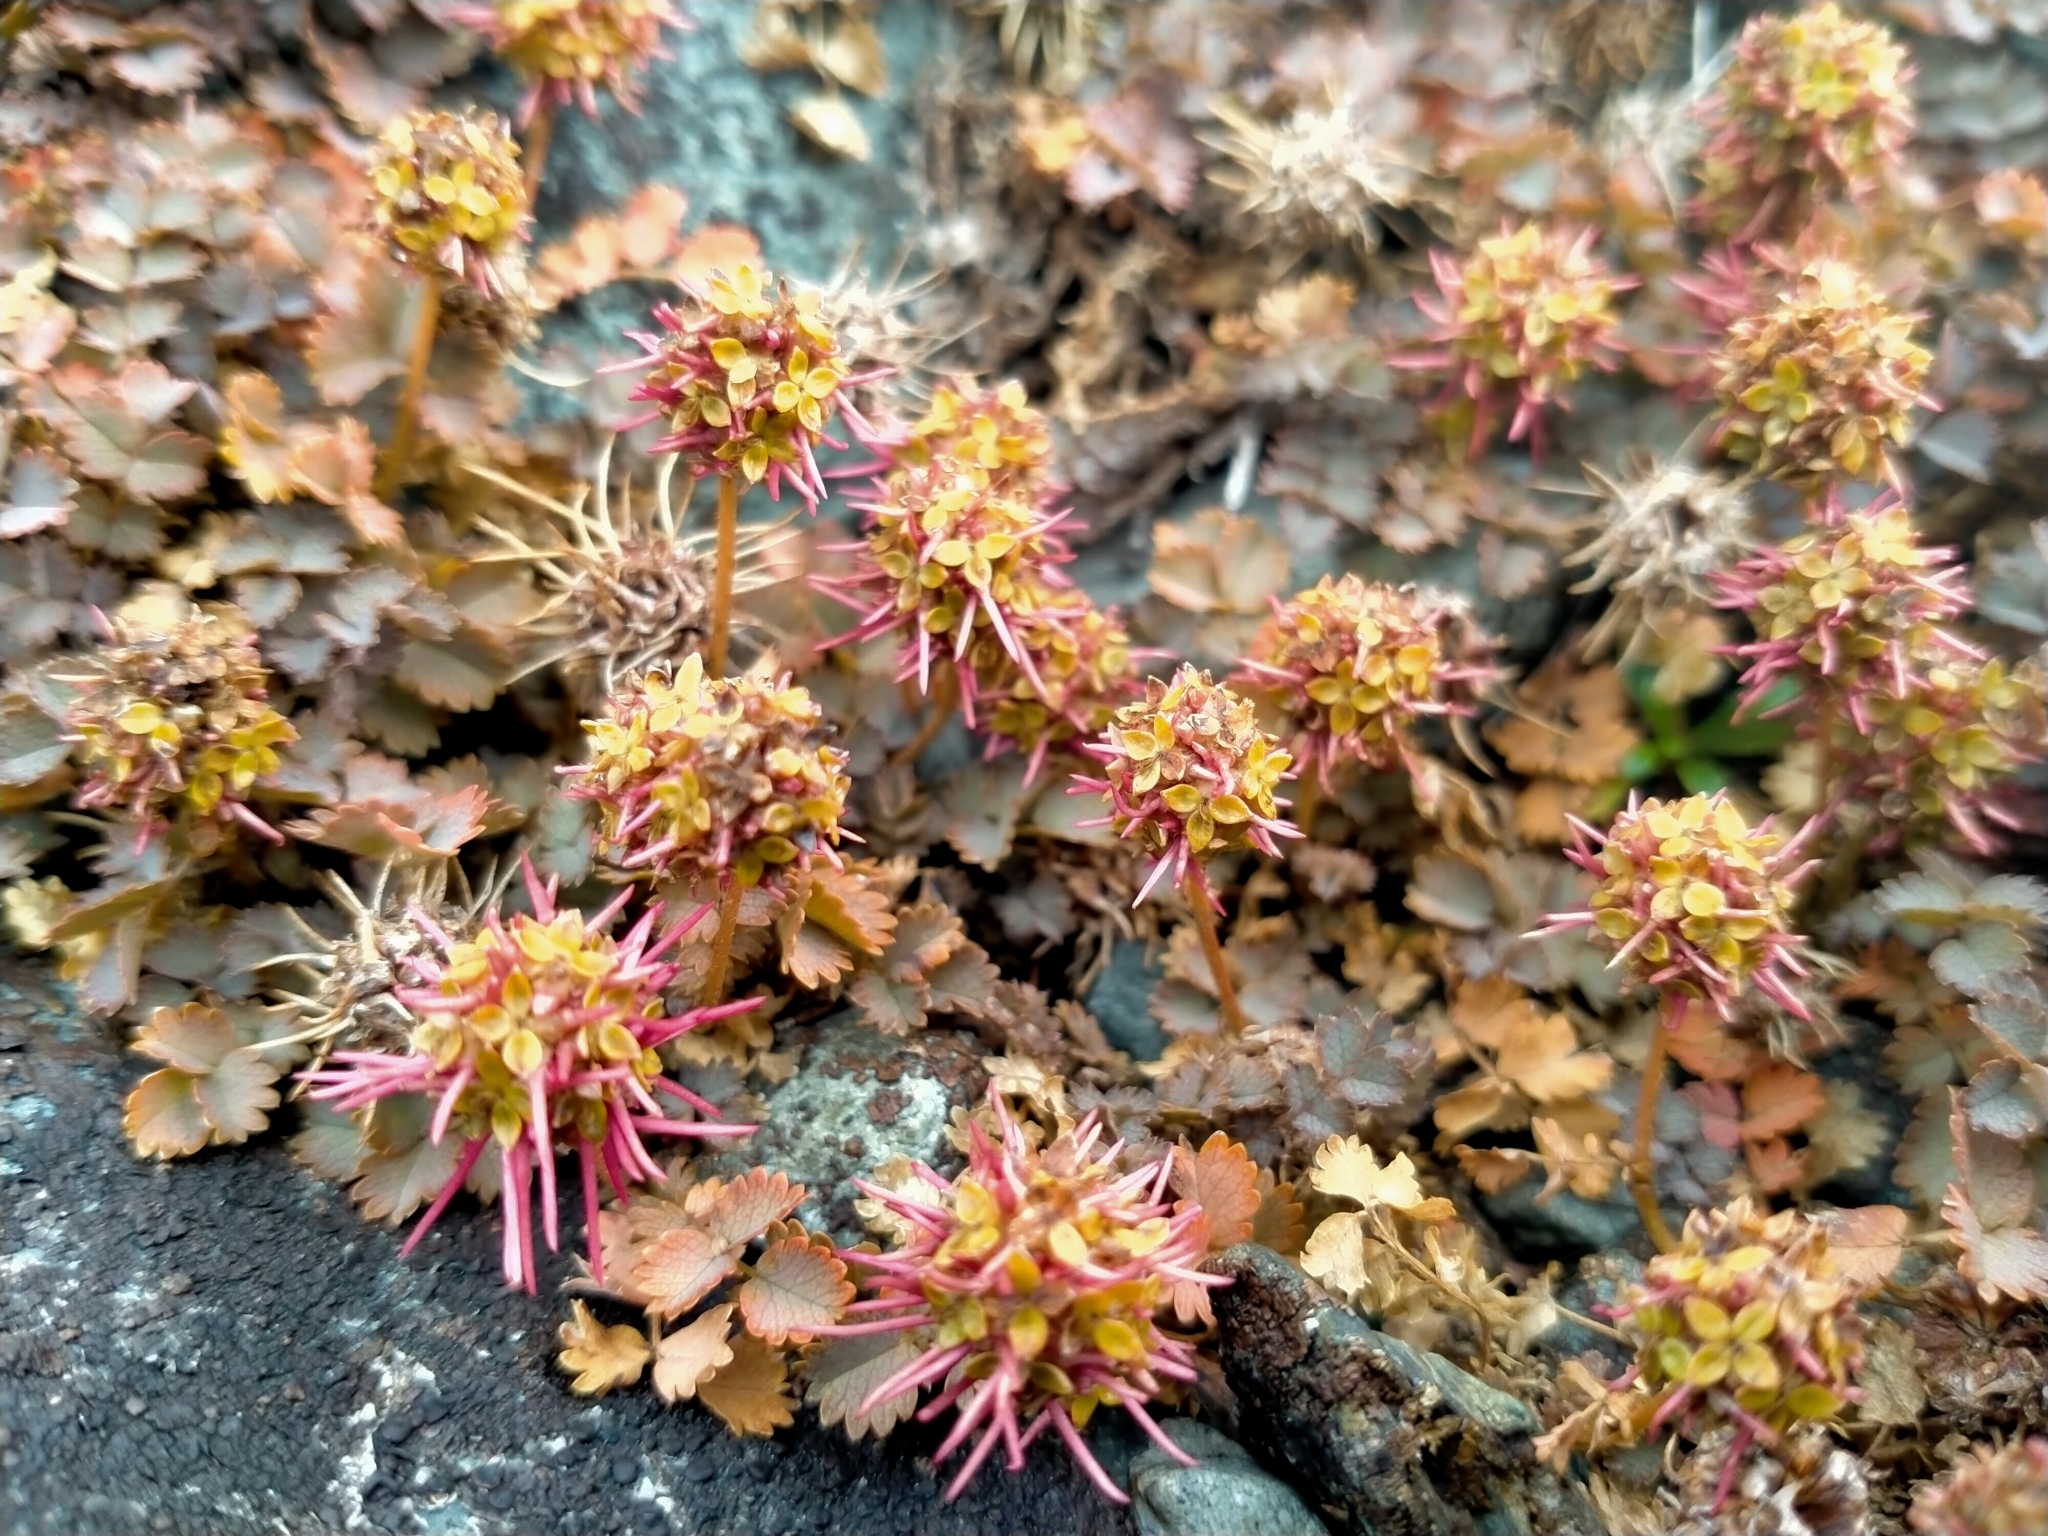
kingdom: Plantae
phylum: Tracheophyta
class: Magnoliopsida
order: Rosales
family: Rosaceae
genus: Acaena
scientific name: Acaena inermis
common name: Spineless acaena
